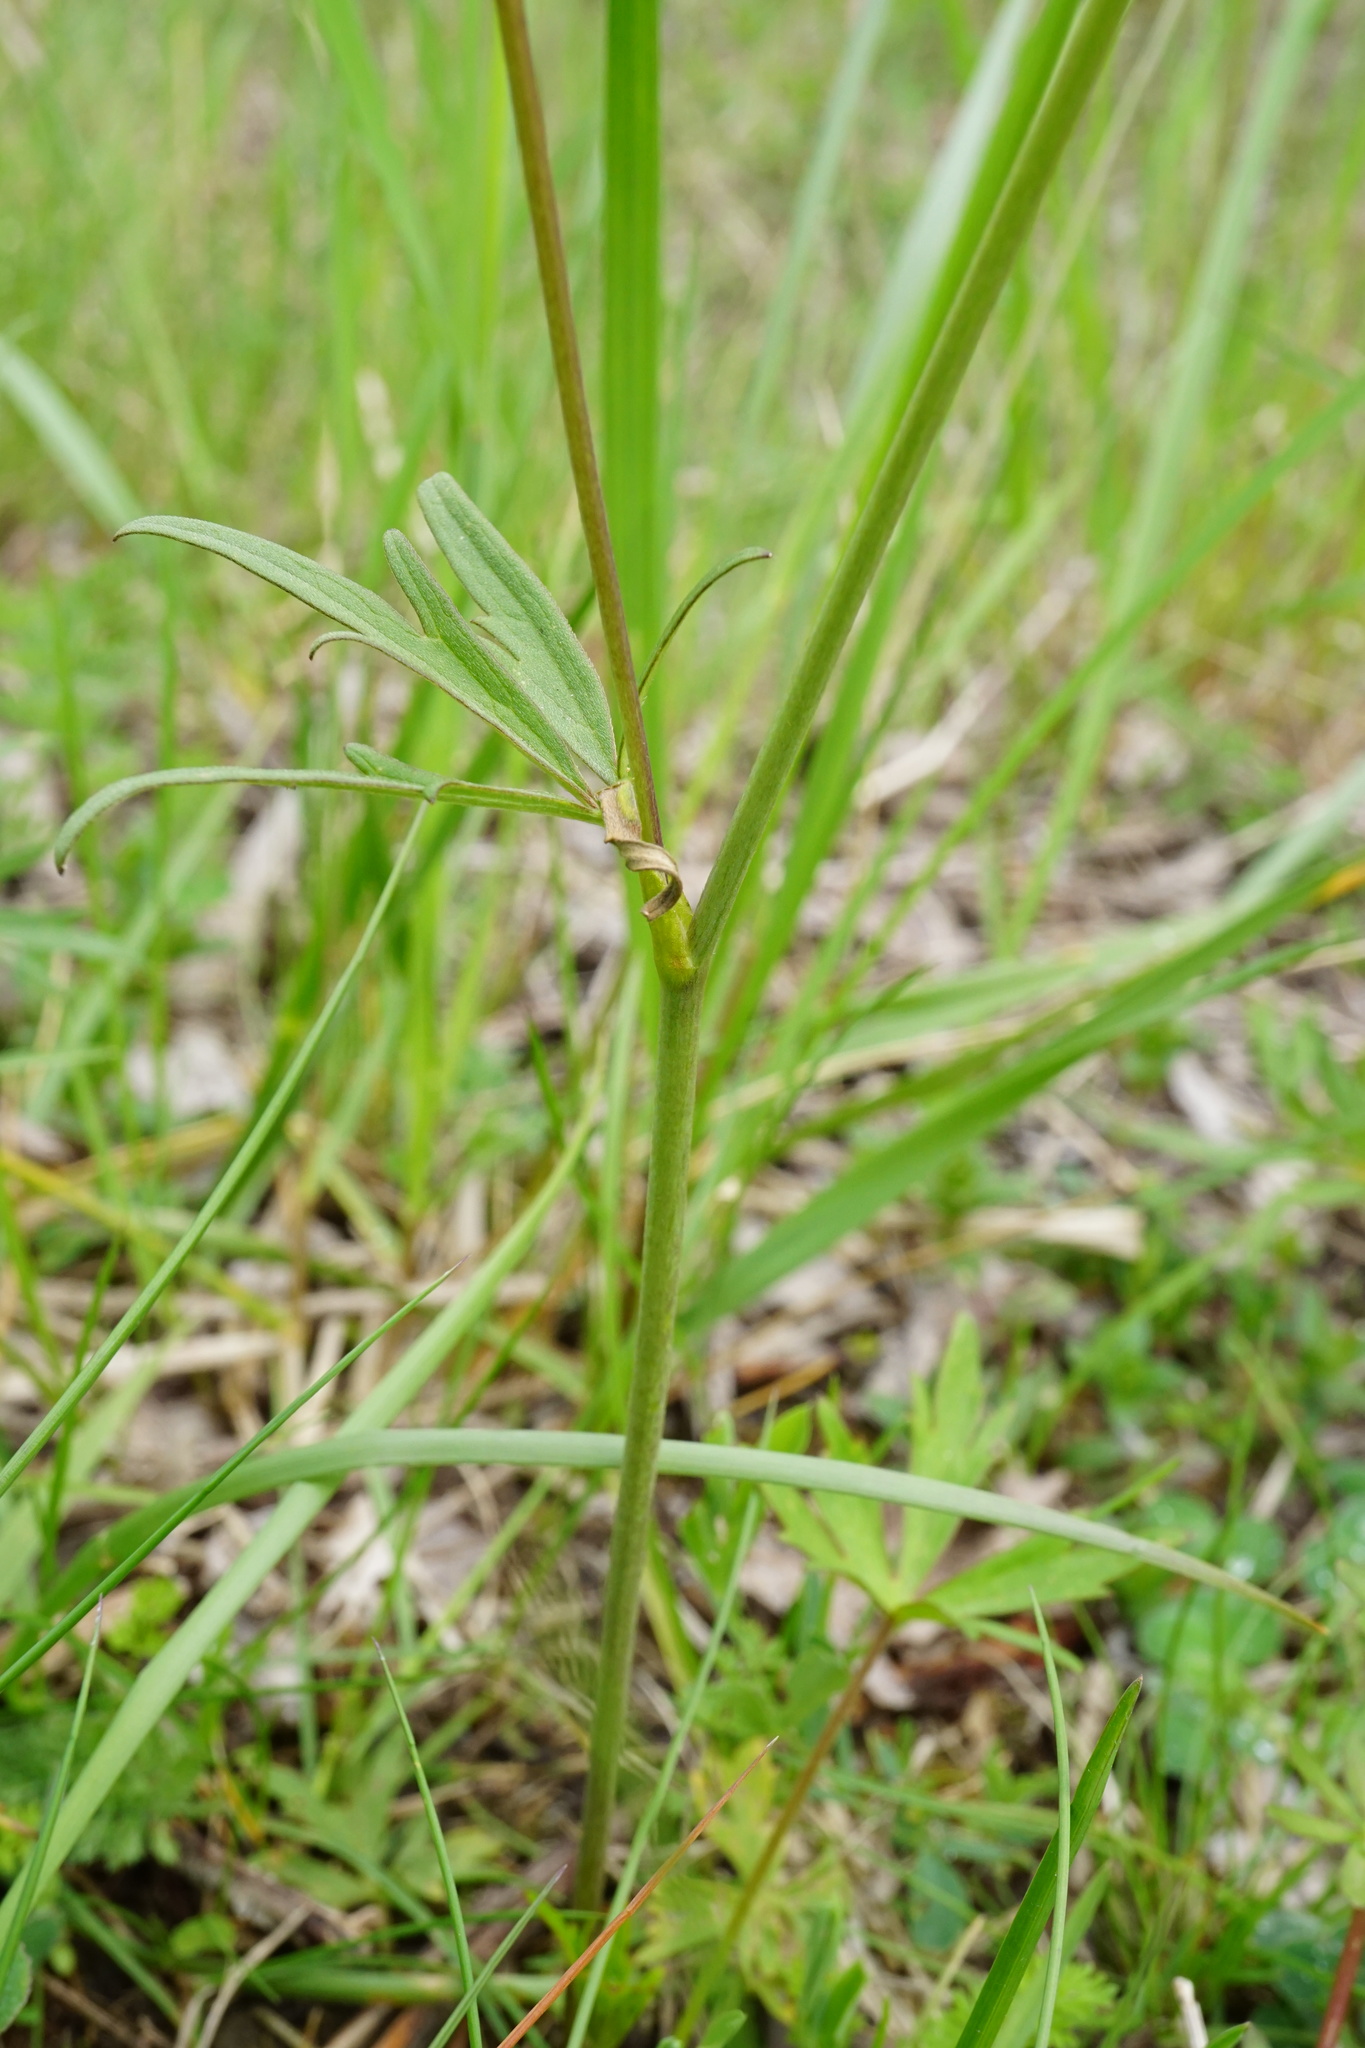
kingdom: Plantae
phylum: Tracheophyta
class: Magnoliopsida
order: Ranunculales
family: Ranunculaceae
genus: Ranunculus
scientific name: Ranunculus acris
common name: Meadow buttercup
